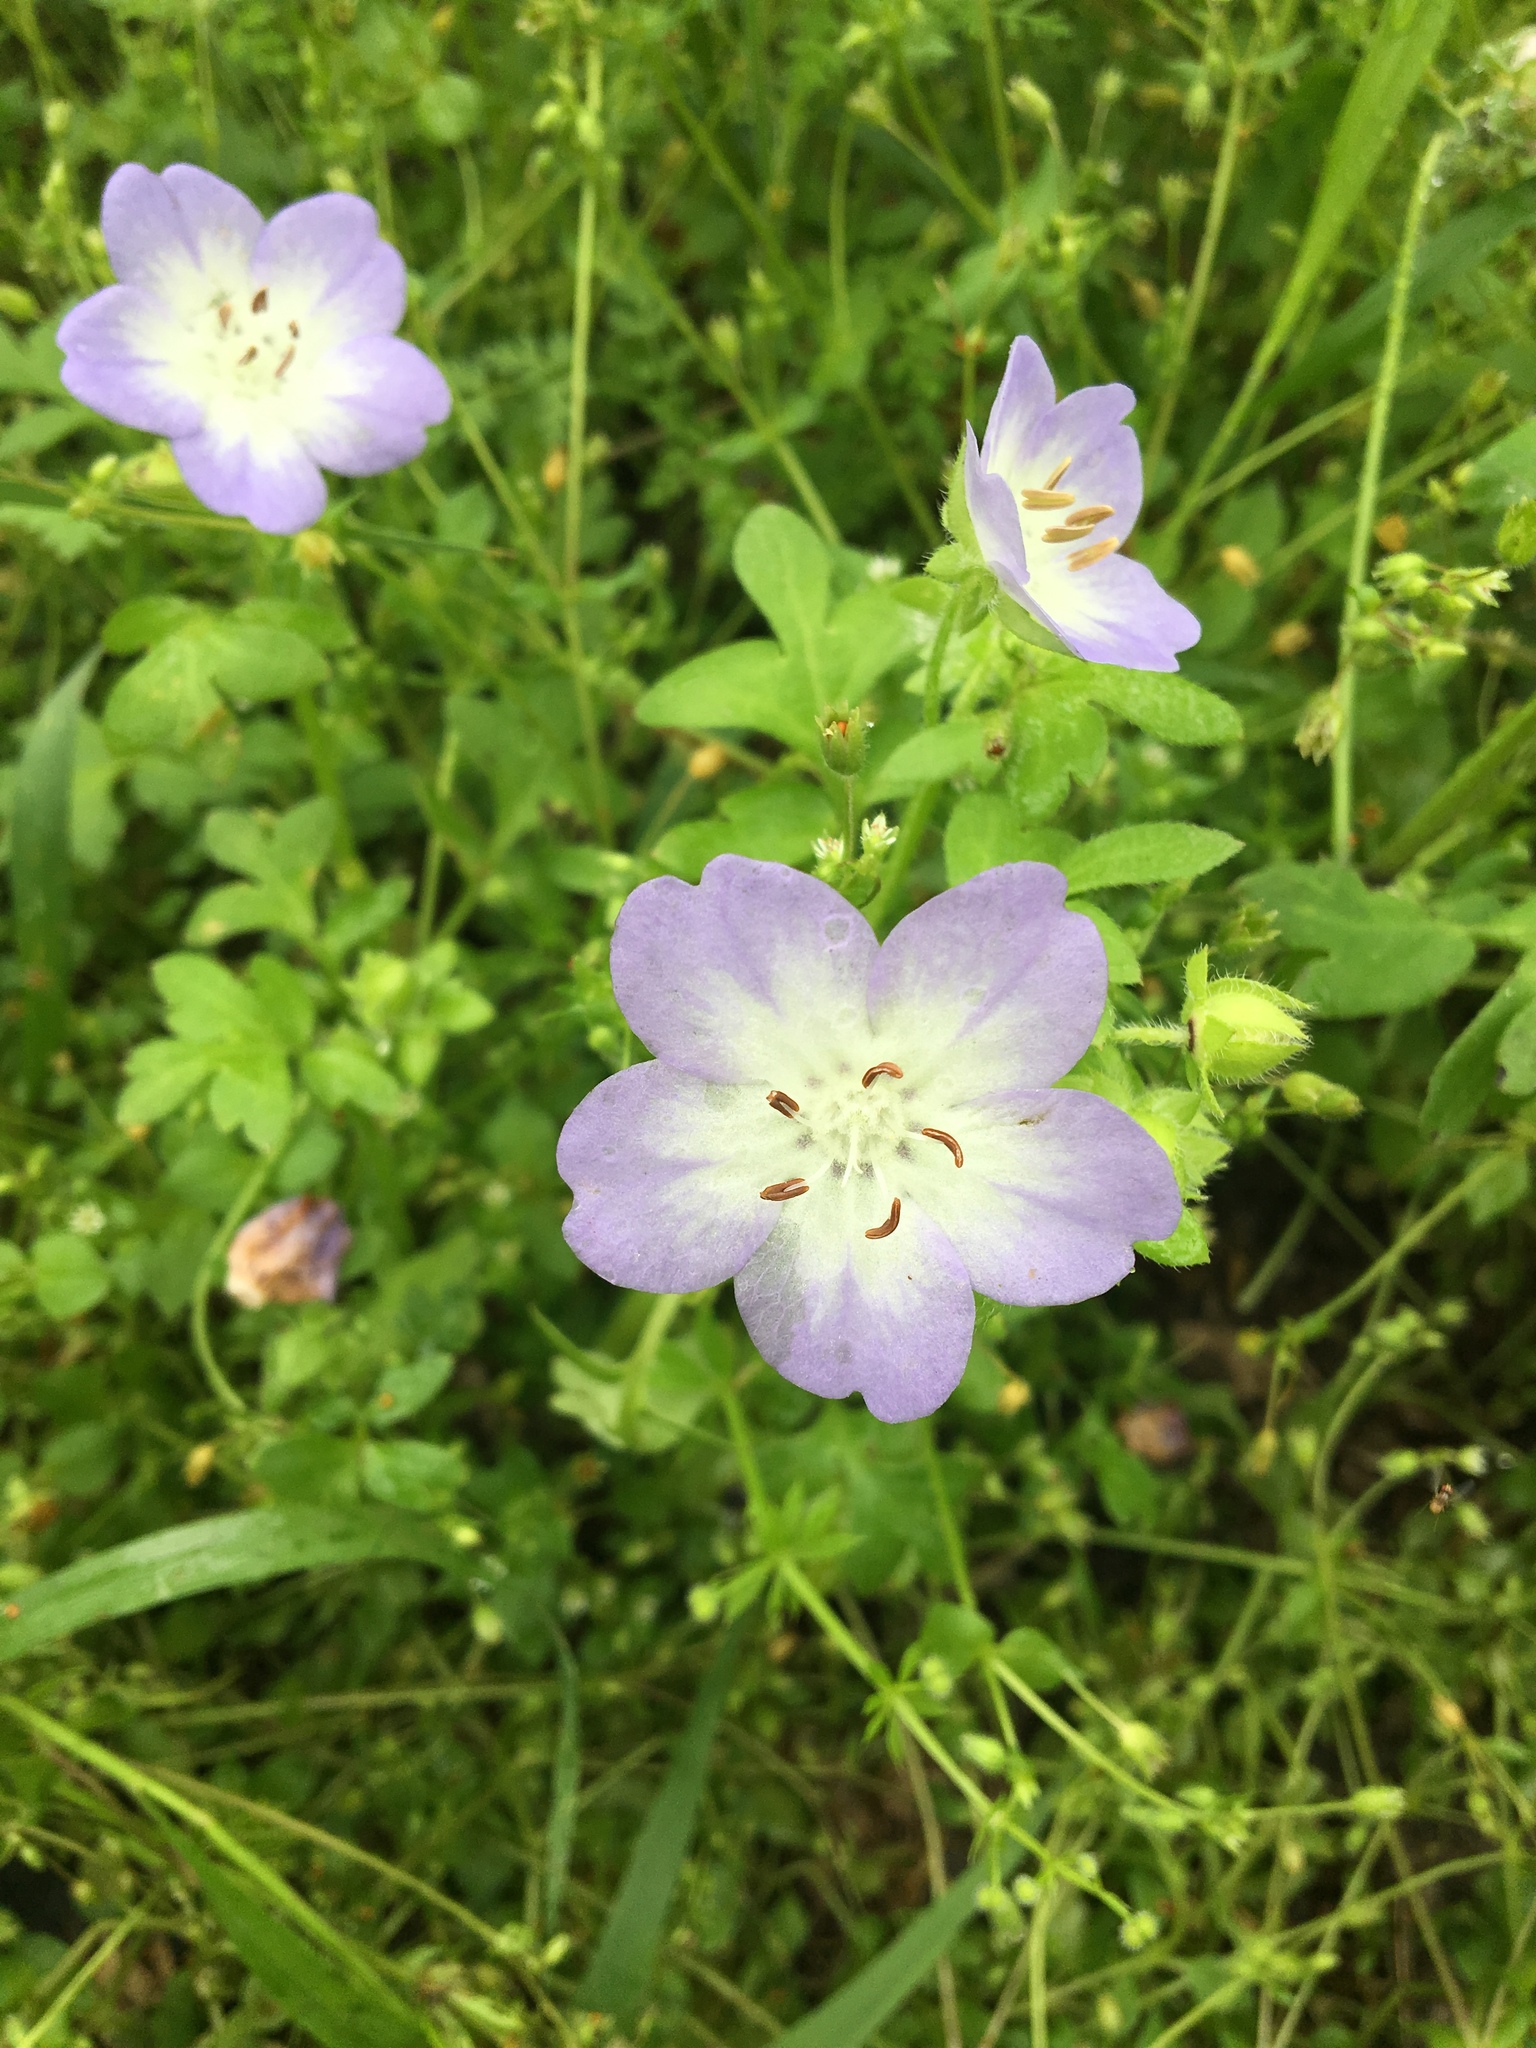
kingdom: Plantae
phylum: Tracheophyta
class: Magnoliopsida
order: Boraginales
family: Hydrophyllaceae
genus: Nemophila
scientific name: Nemophila phacelioides
